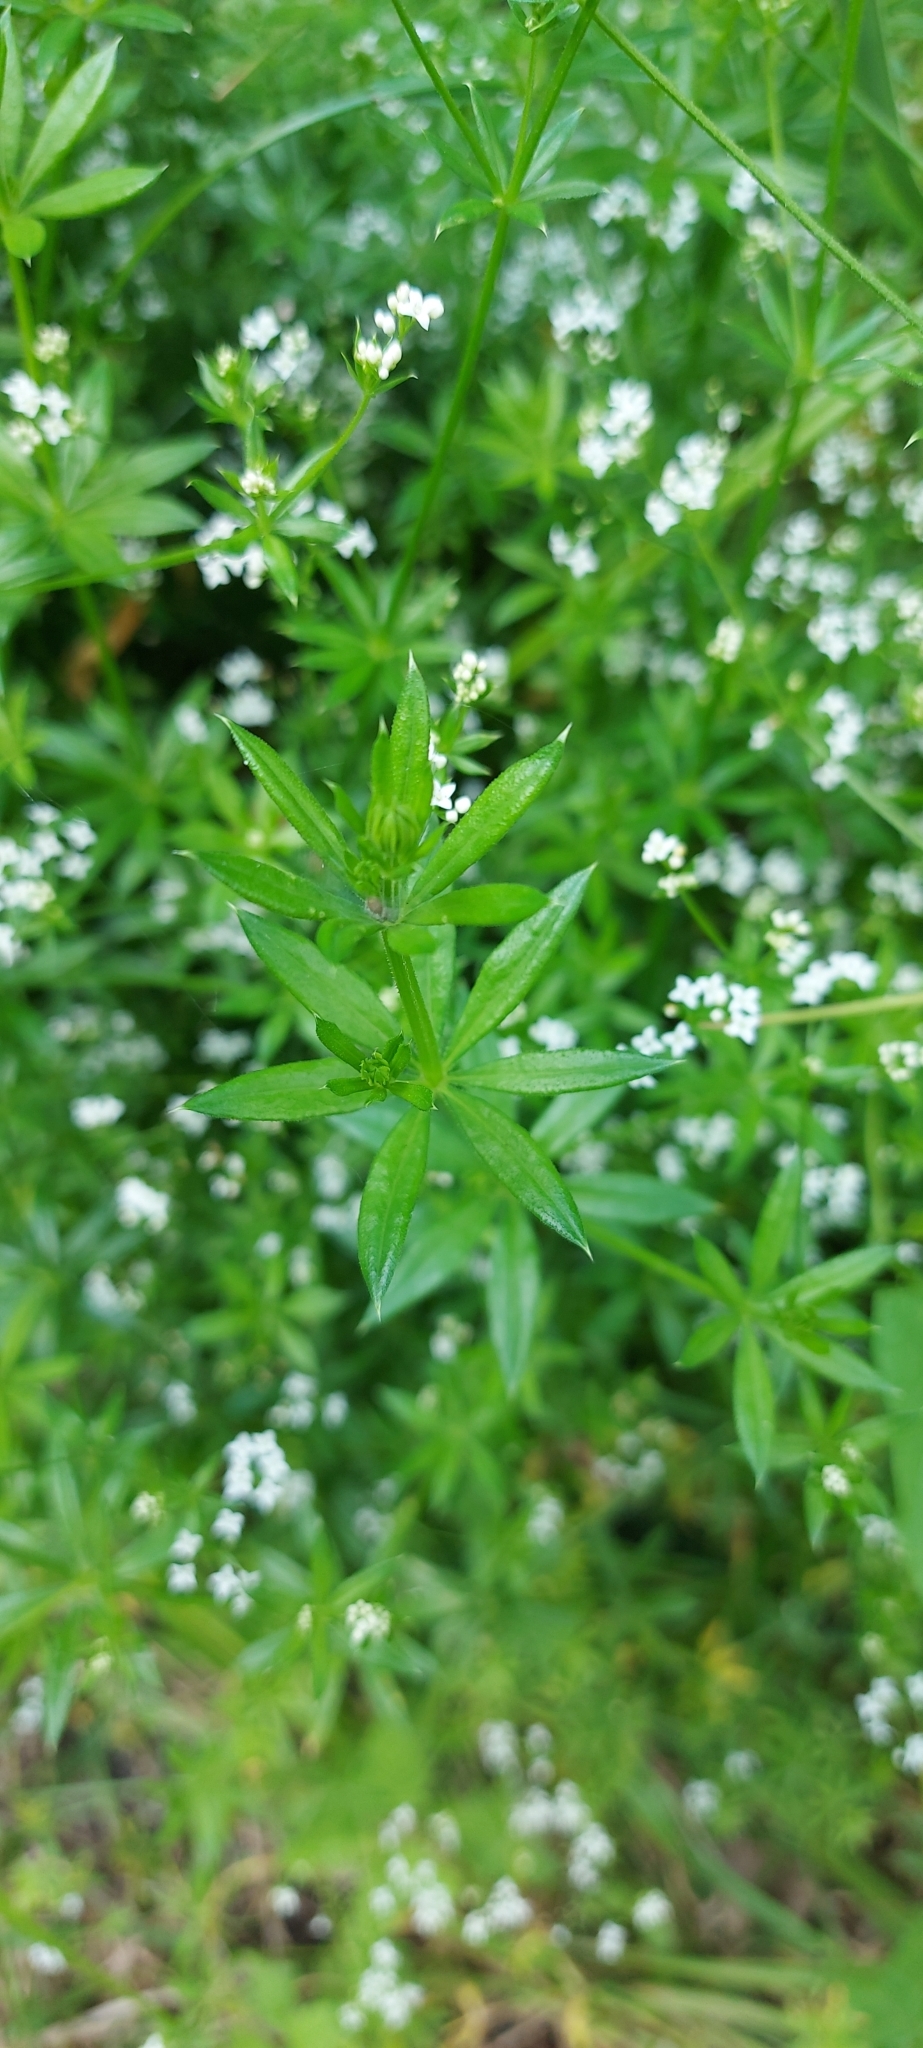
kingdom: Plantae
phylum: Tracheophyta
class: Magnoliopsida
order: Gentianales
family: Rubiaceae
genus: Galium
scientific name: Galium rivale
